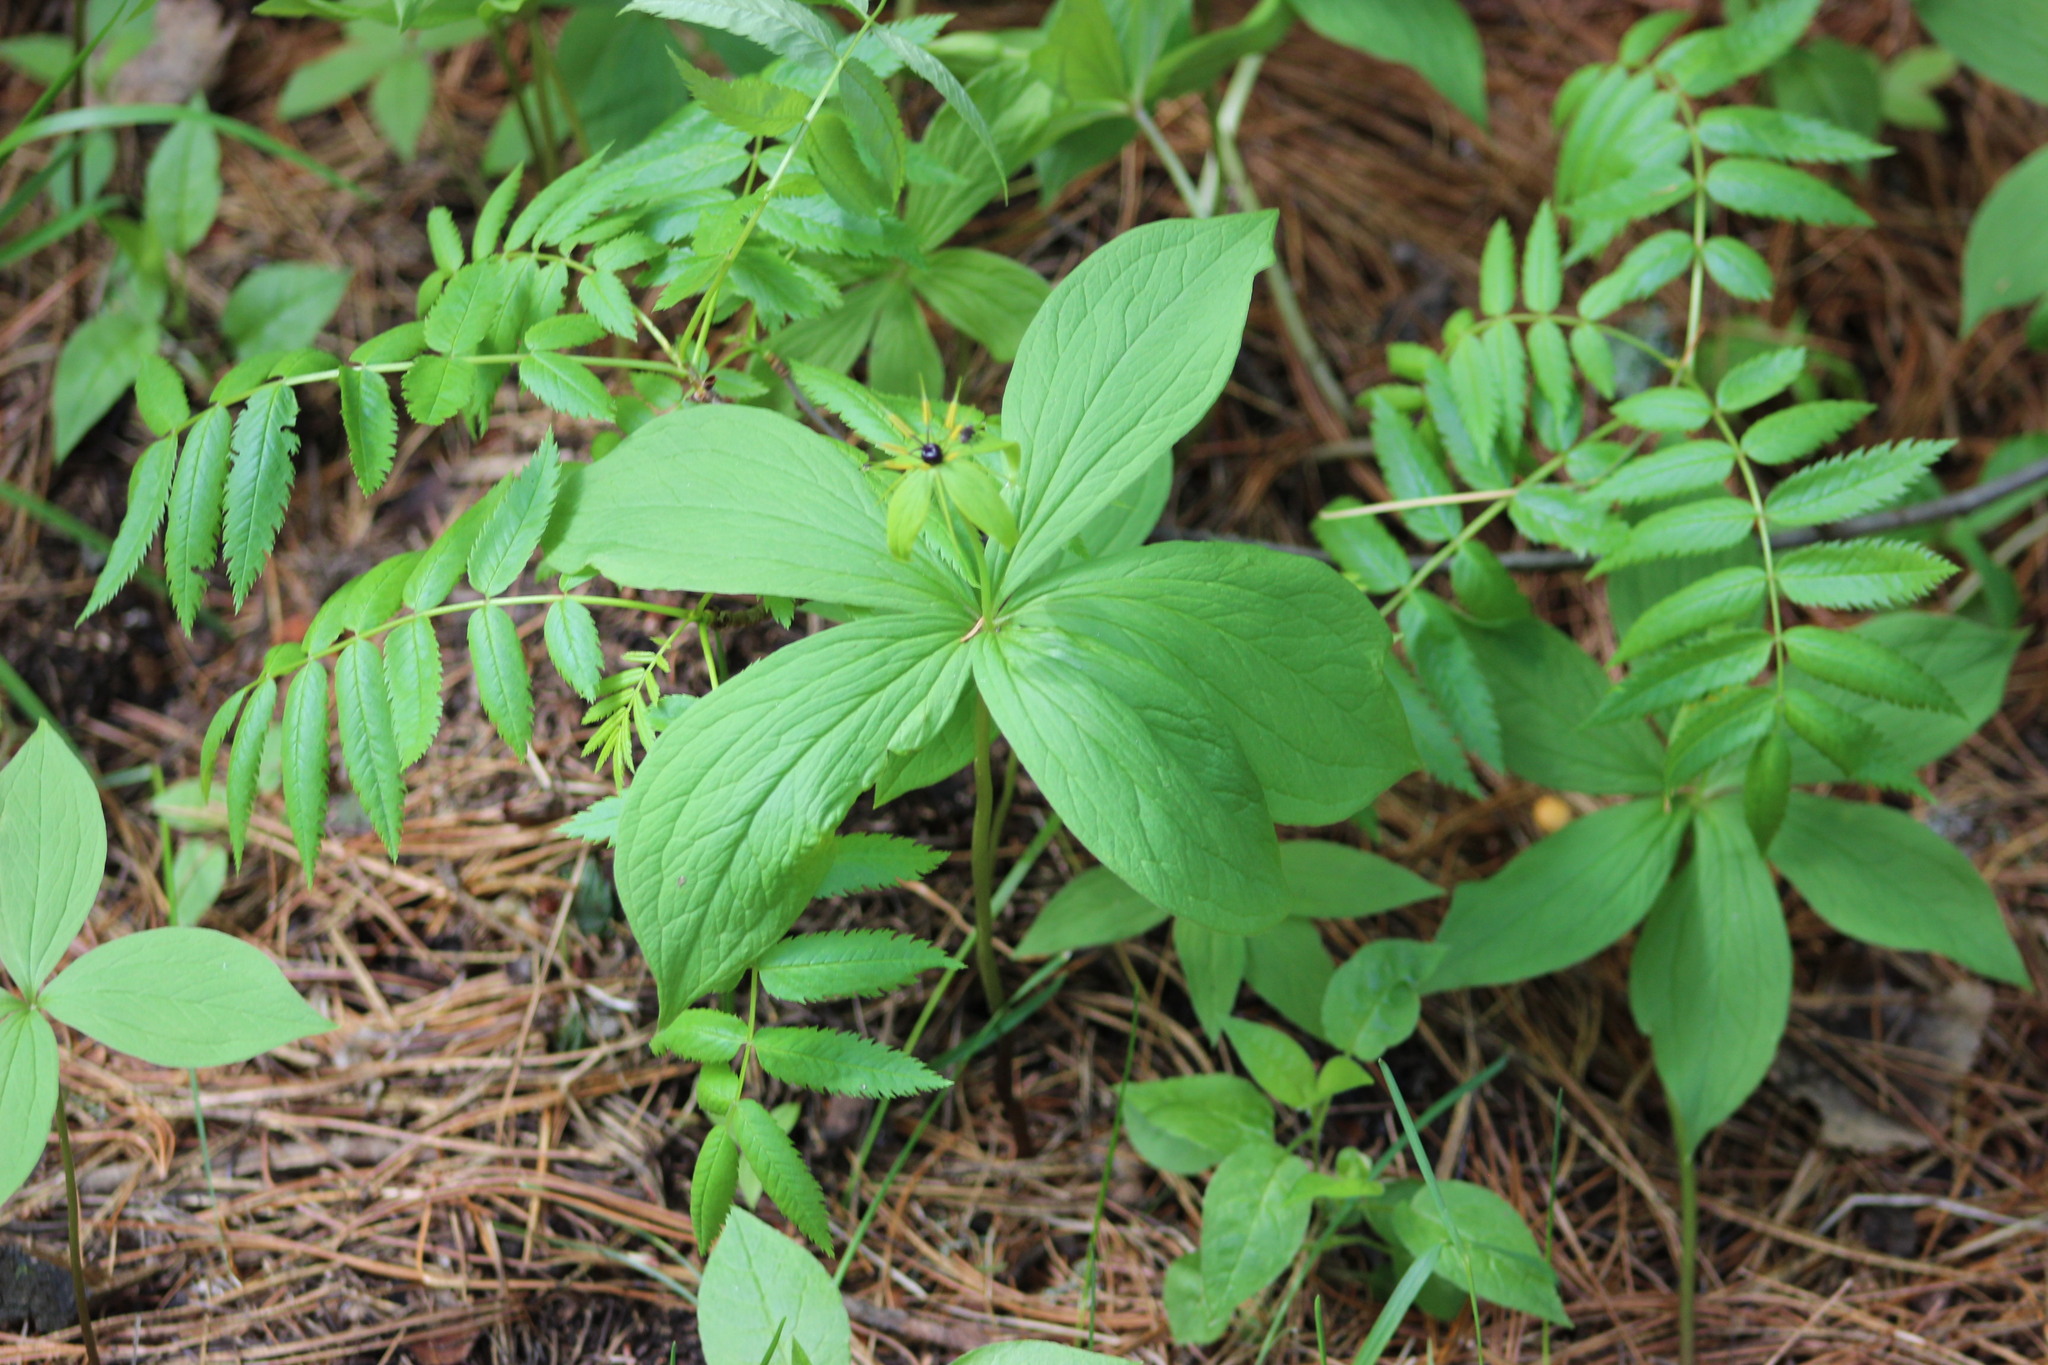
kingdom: Plantae
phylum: Tracheophyta
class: Liliopsida
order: Liliales
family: Melanthiaceae
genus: Paris
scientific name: Paris quadrifolia
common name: Herb-paris
